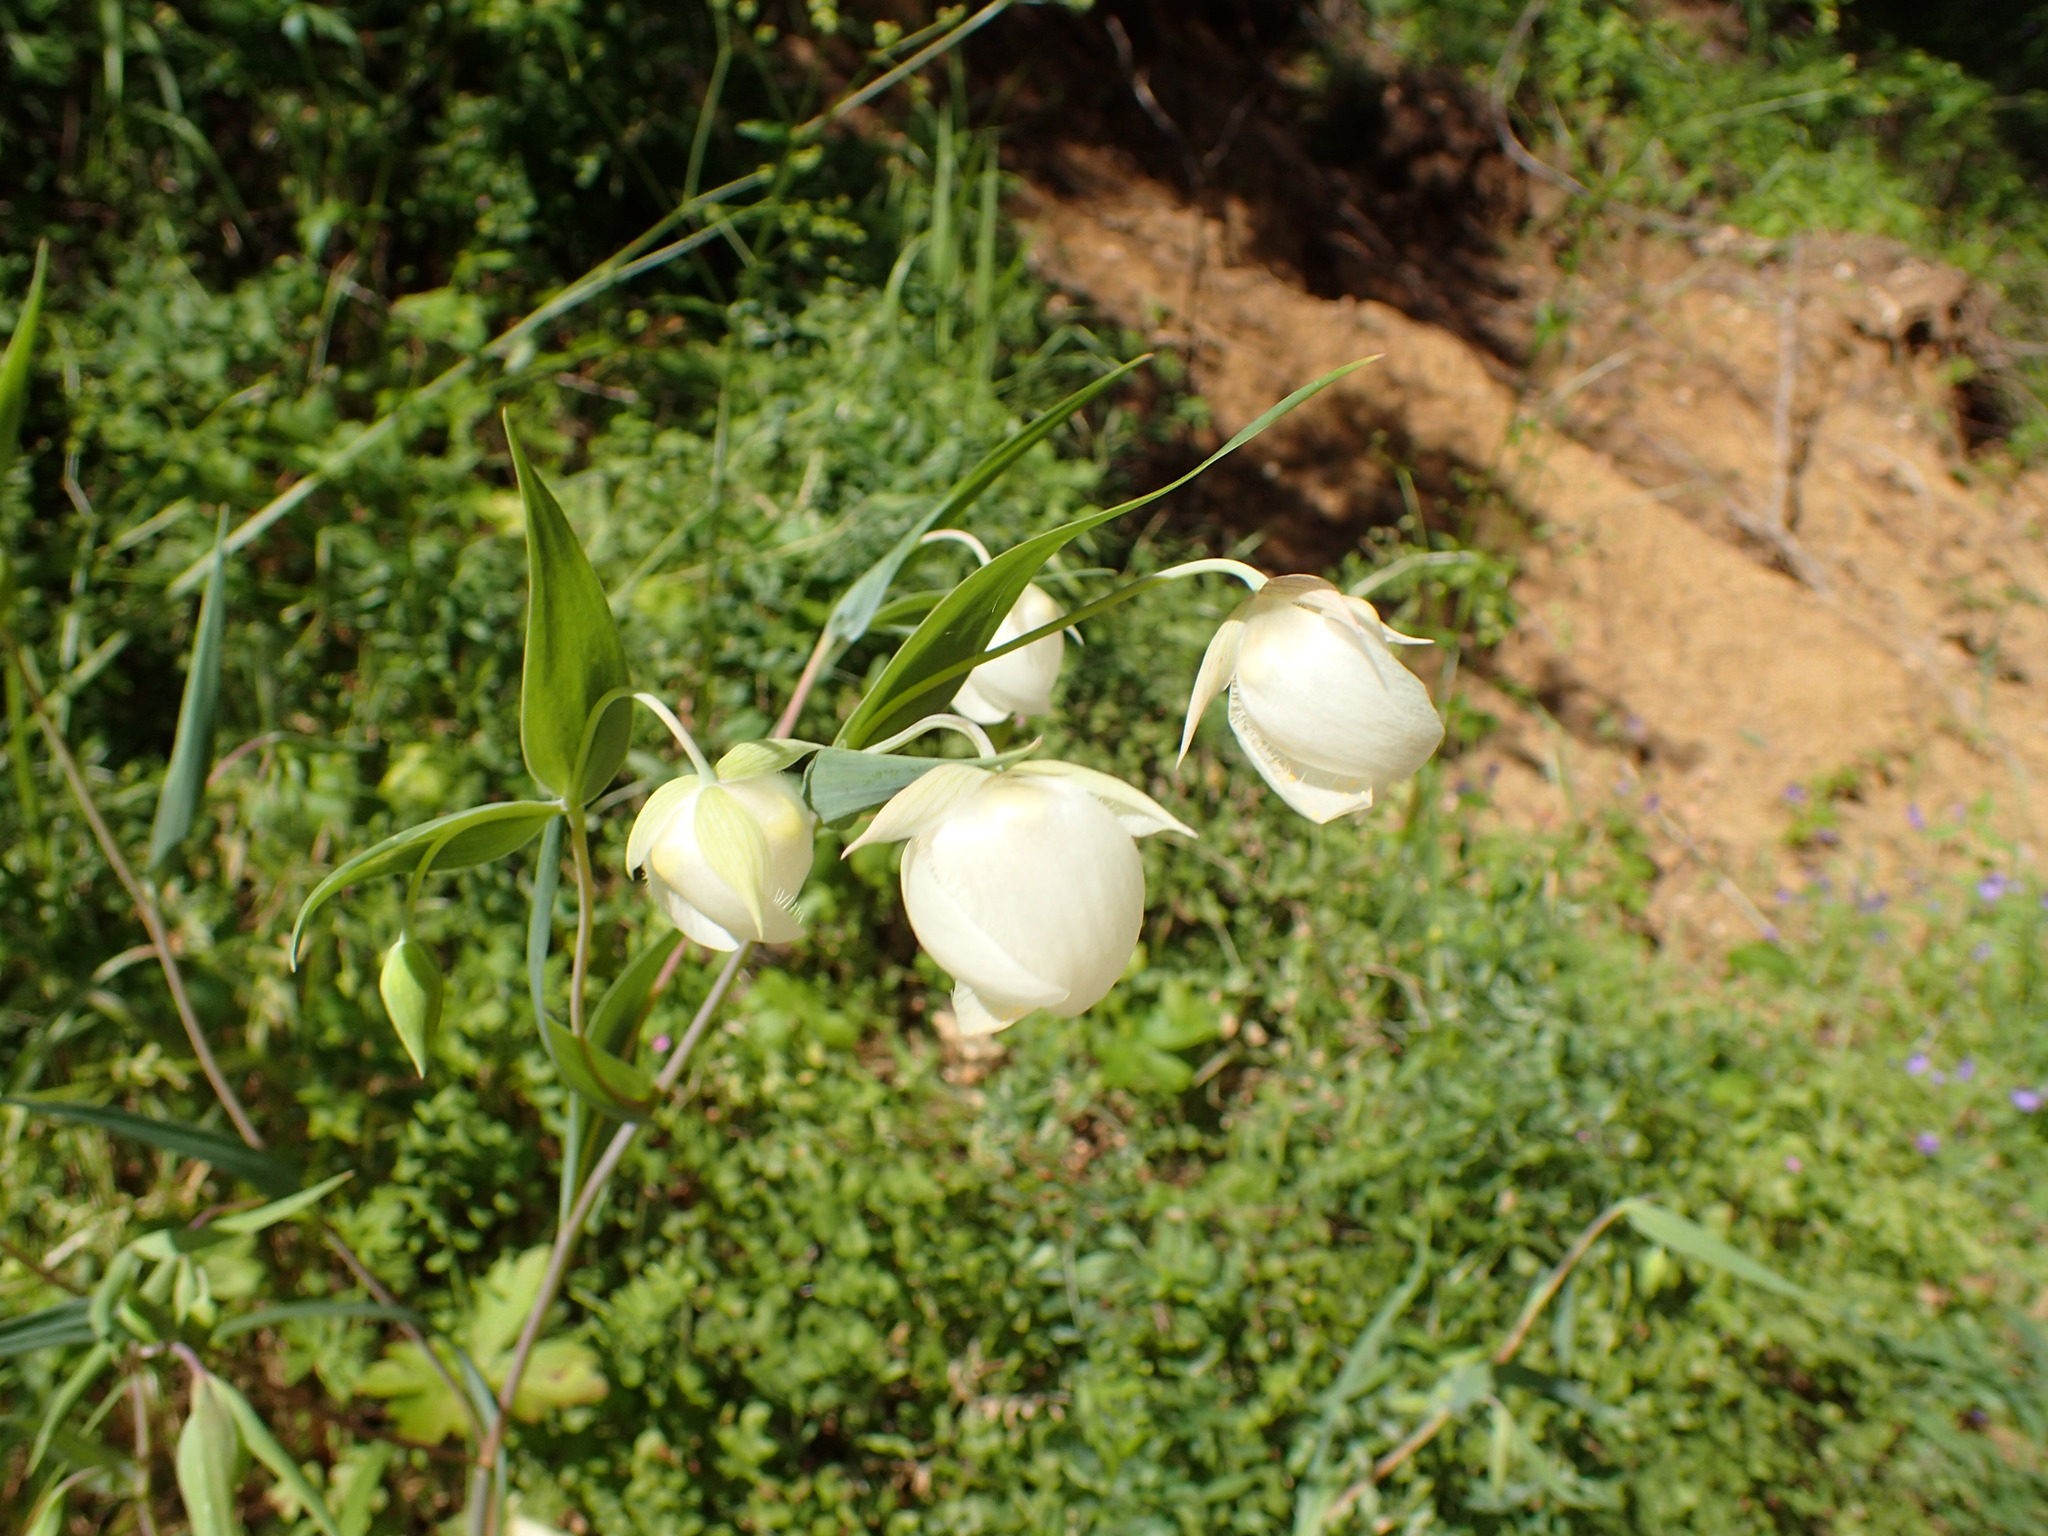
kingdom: Plantae
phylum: Tracheophyta
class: Liliopsida
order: Liliales
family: Liliaceae
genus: Calochortus
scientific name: Calochortus albus
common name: Fairy-lantern
